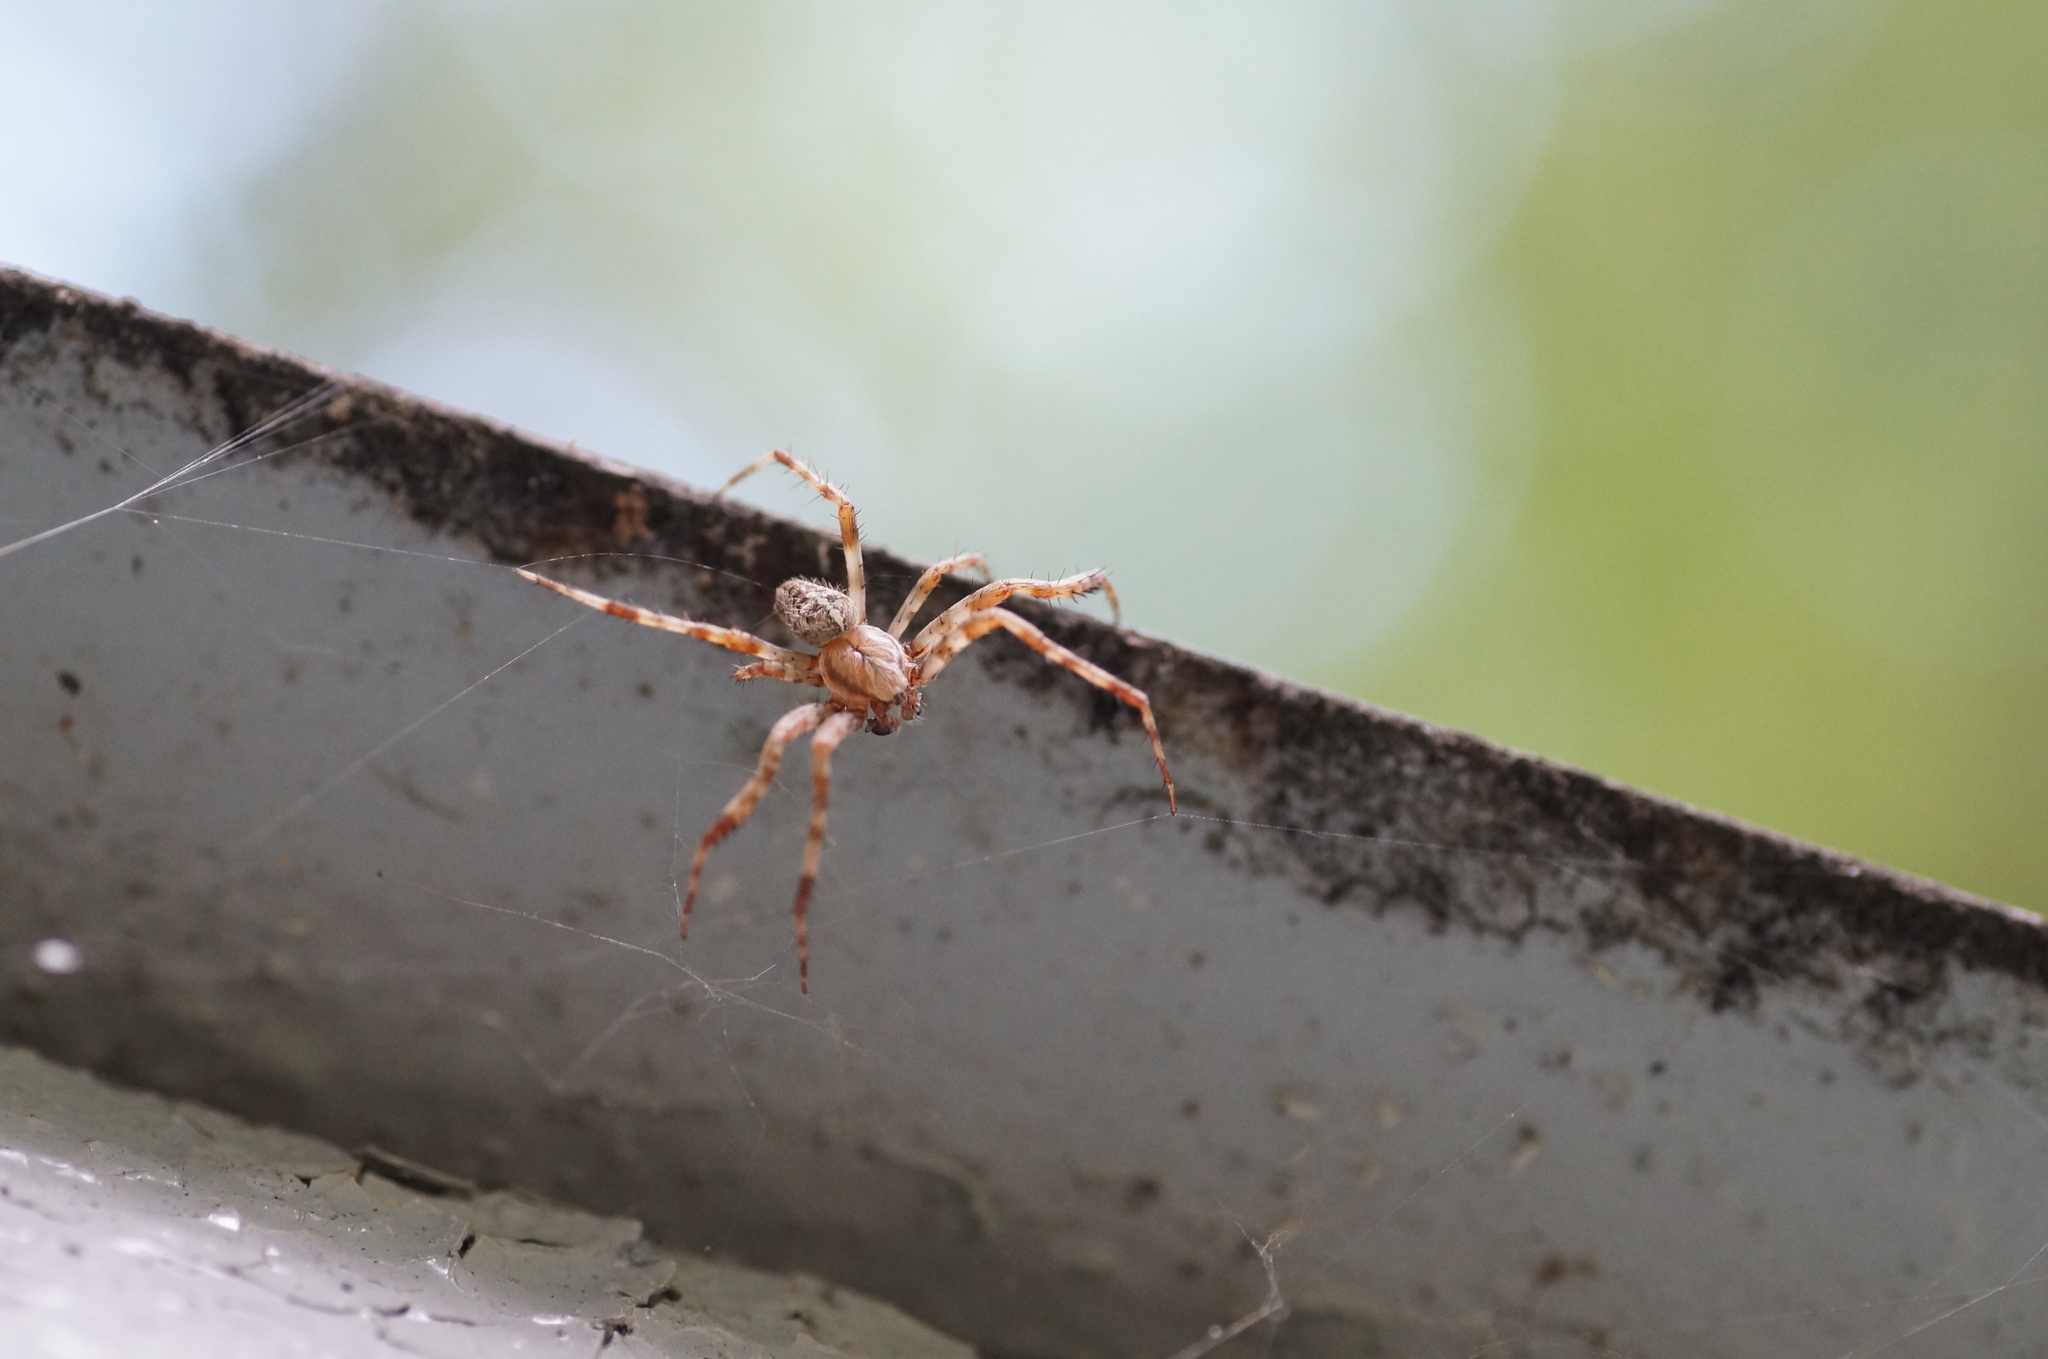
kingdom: Animalia
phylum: Arthropoda
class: Arachnida
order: Araneae
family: Araneidae
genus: Araneus
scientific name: Araneus diadematus
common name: Cross orbweaver
